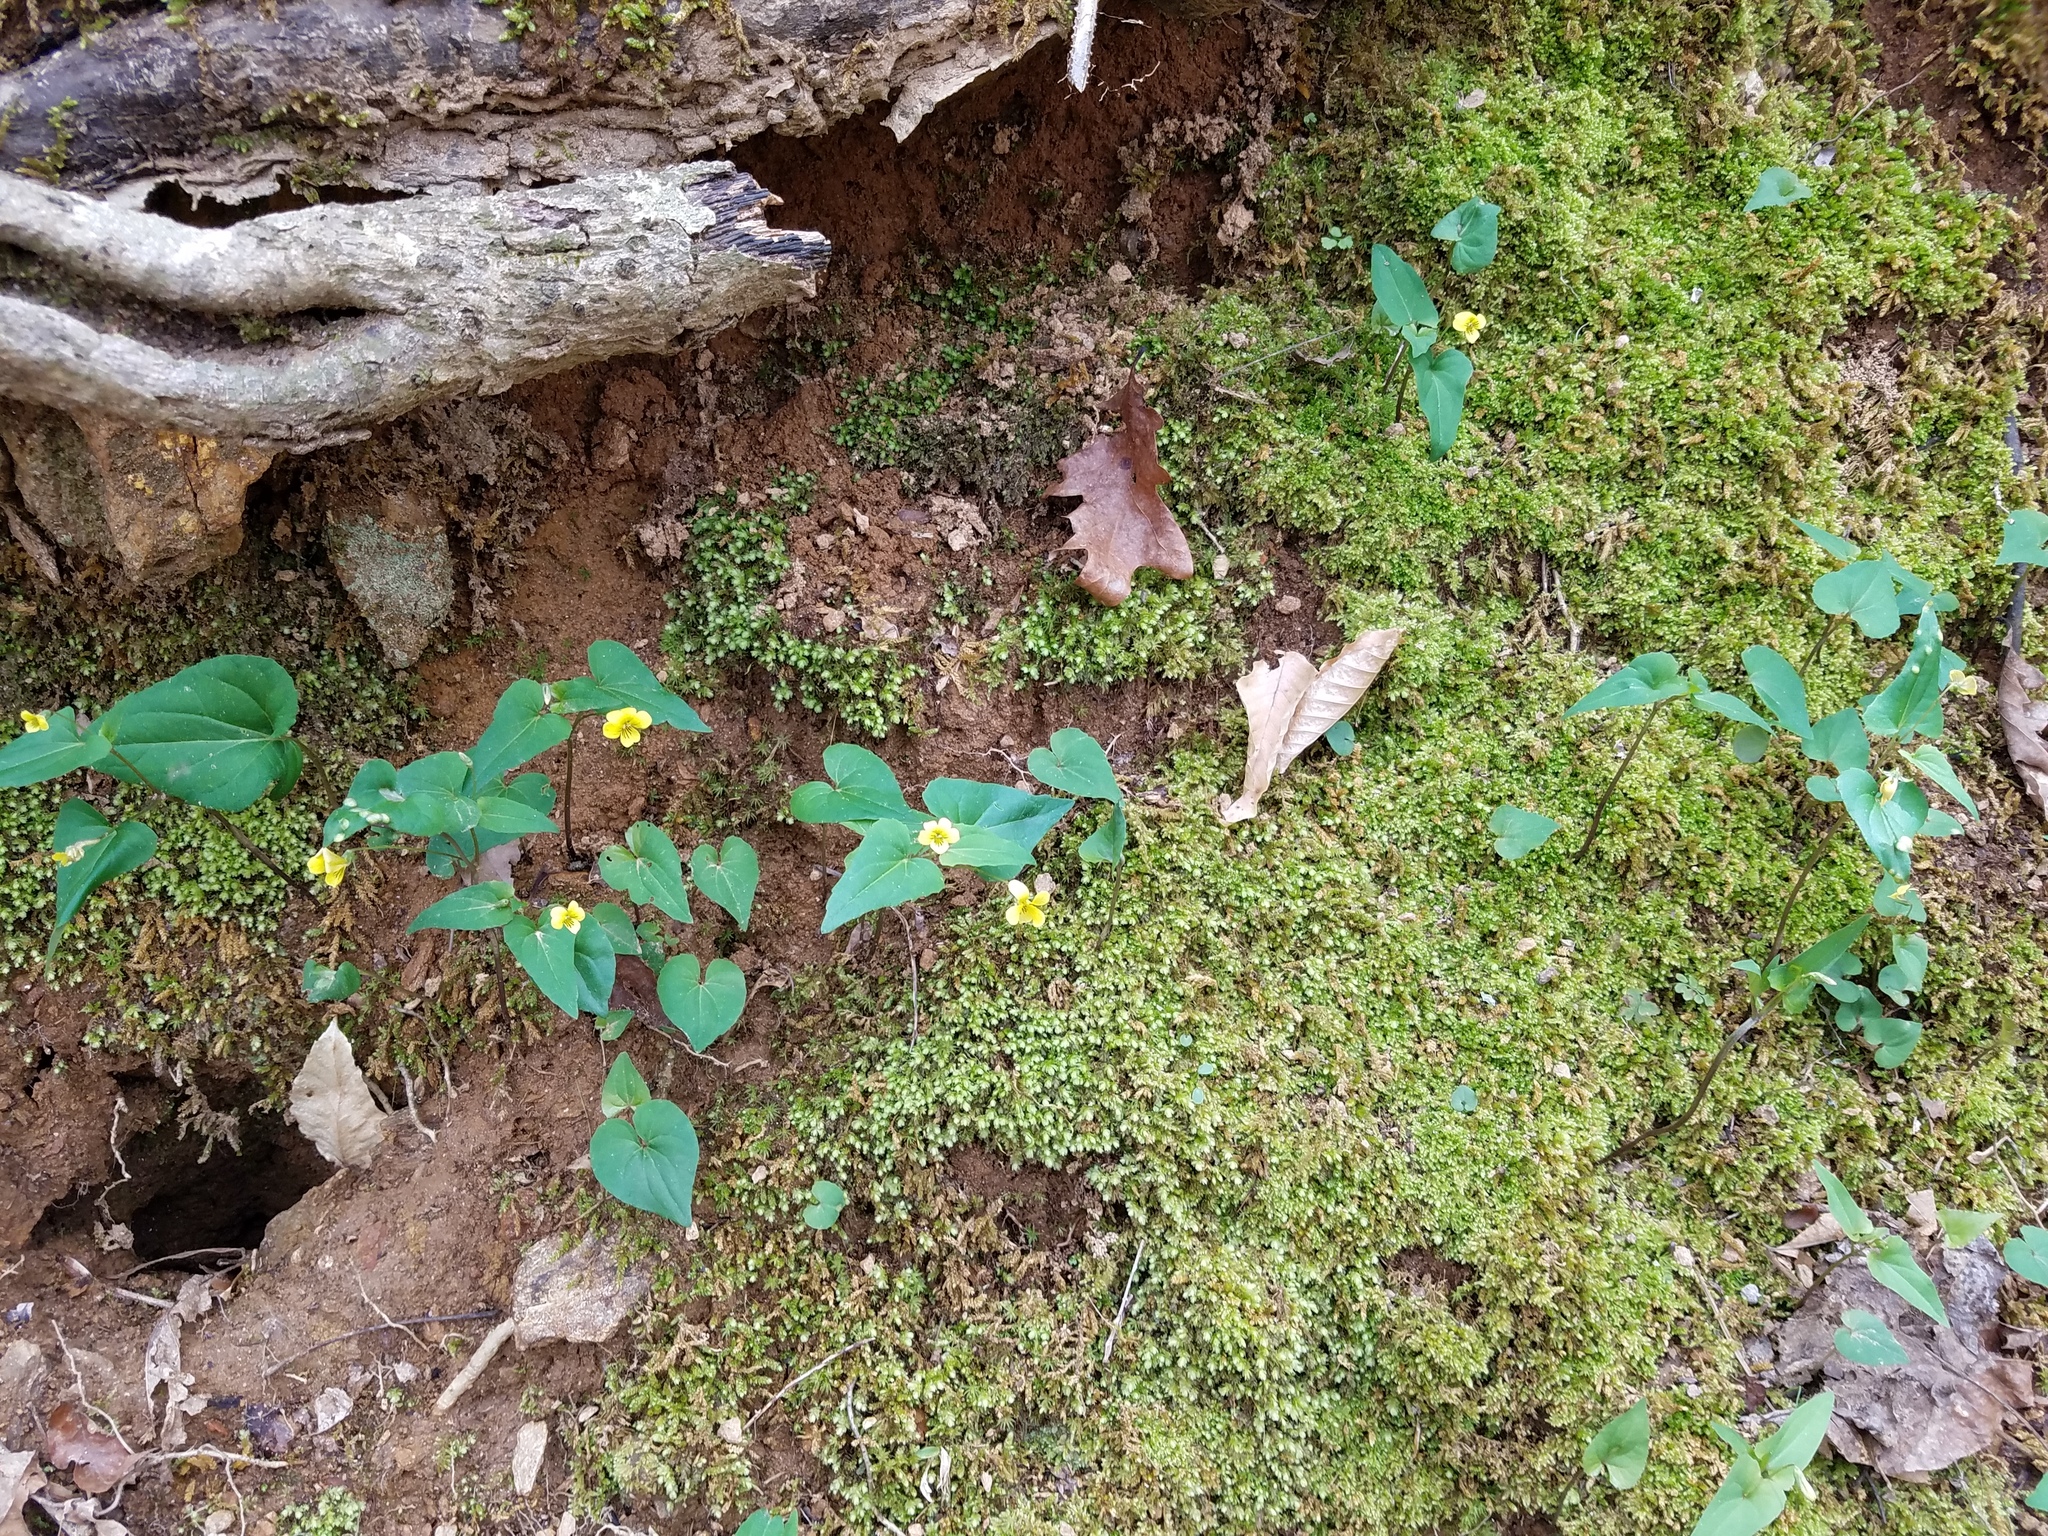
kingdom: Plantae
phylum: Tracheophyta
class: Magnoliopsida
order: Malpighiales
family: Violaceae
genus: Viola
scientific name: Viola hastata
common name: Spear-leaf violet
